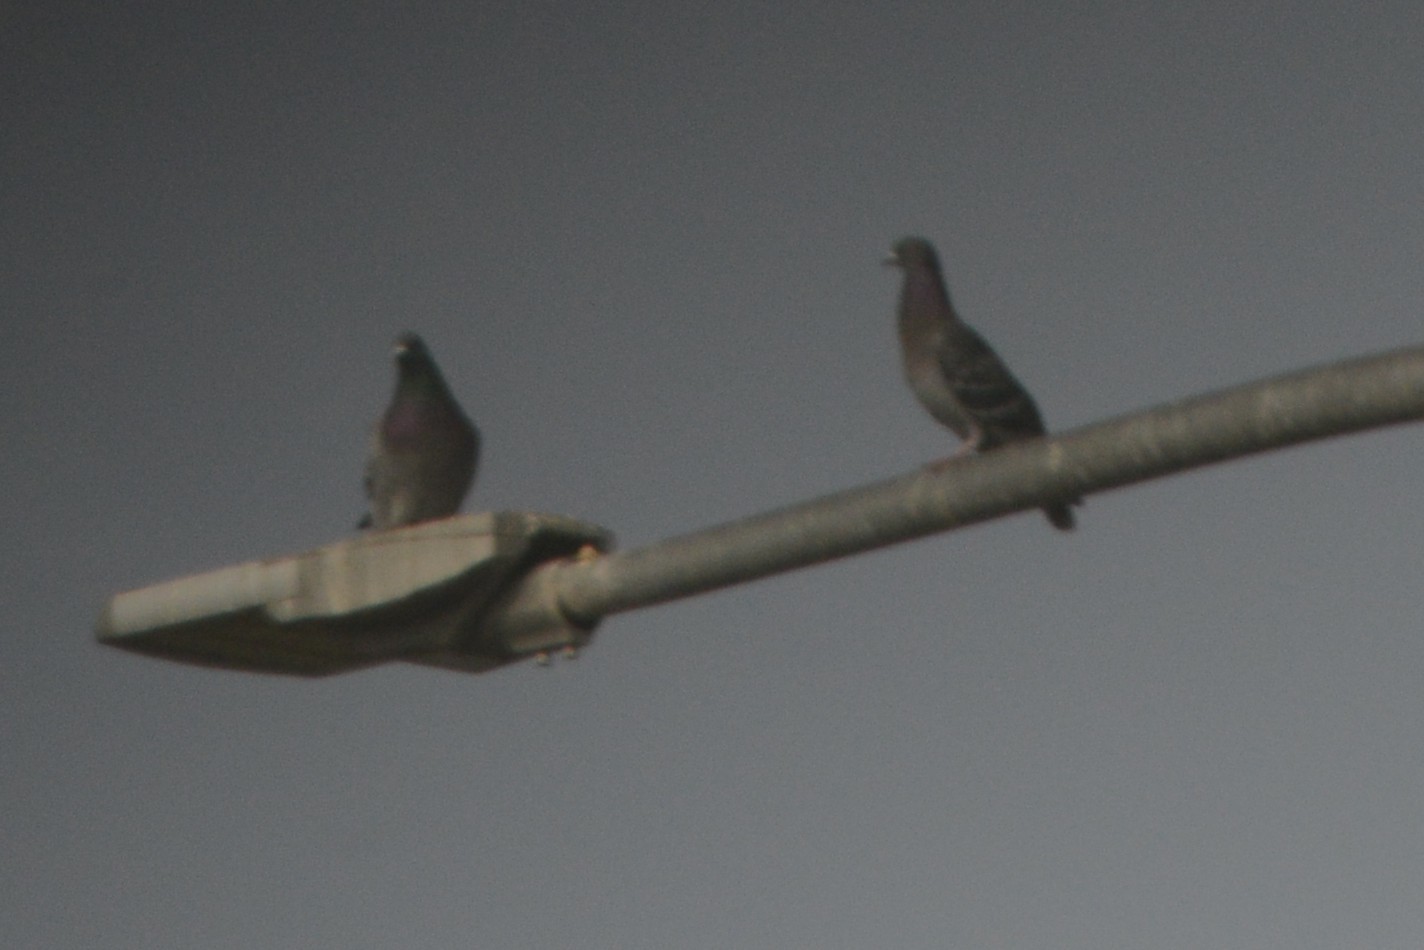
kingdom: Animalia
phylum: Chordata
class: Aves
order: Columbiformes
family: Columbidae
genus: Columba
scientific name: Columba livia
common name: Rock pigeon
